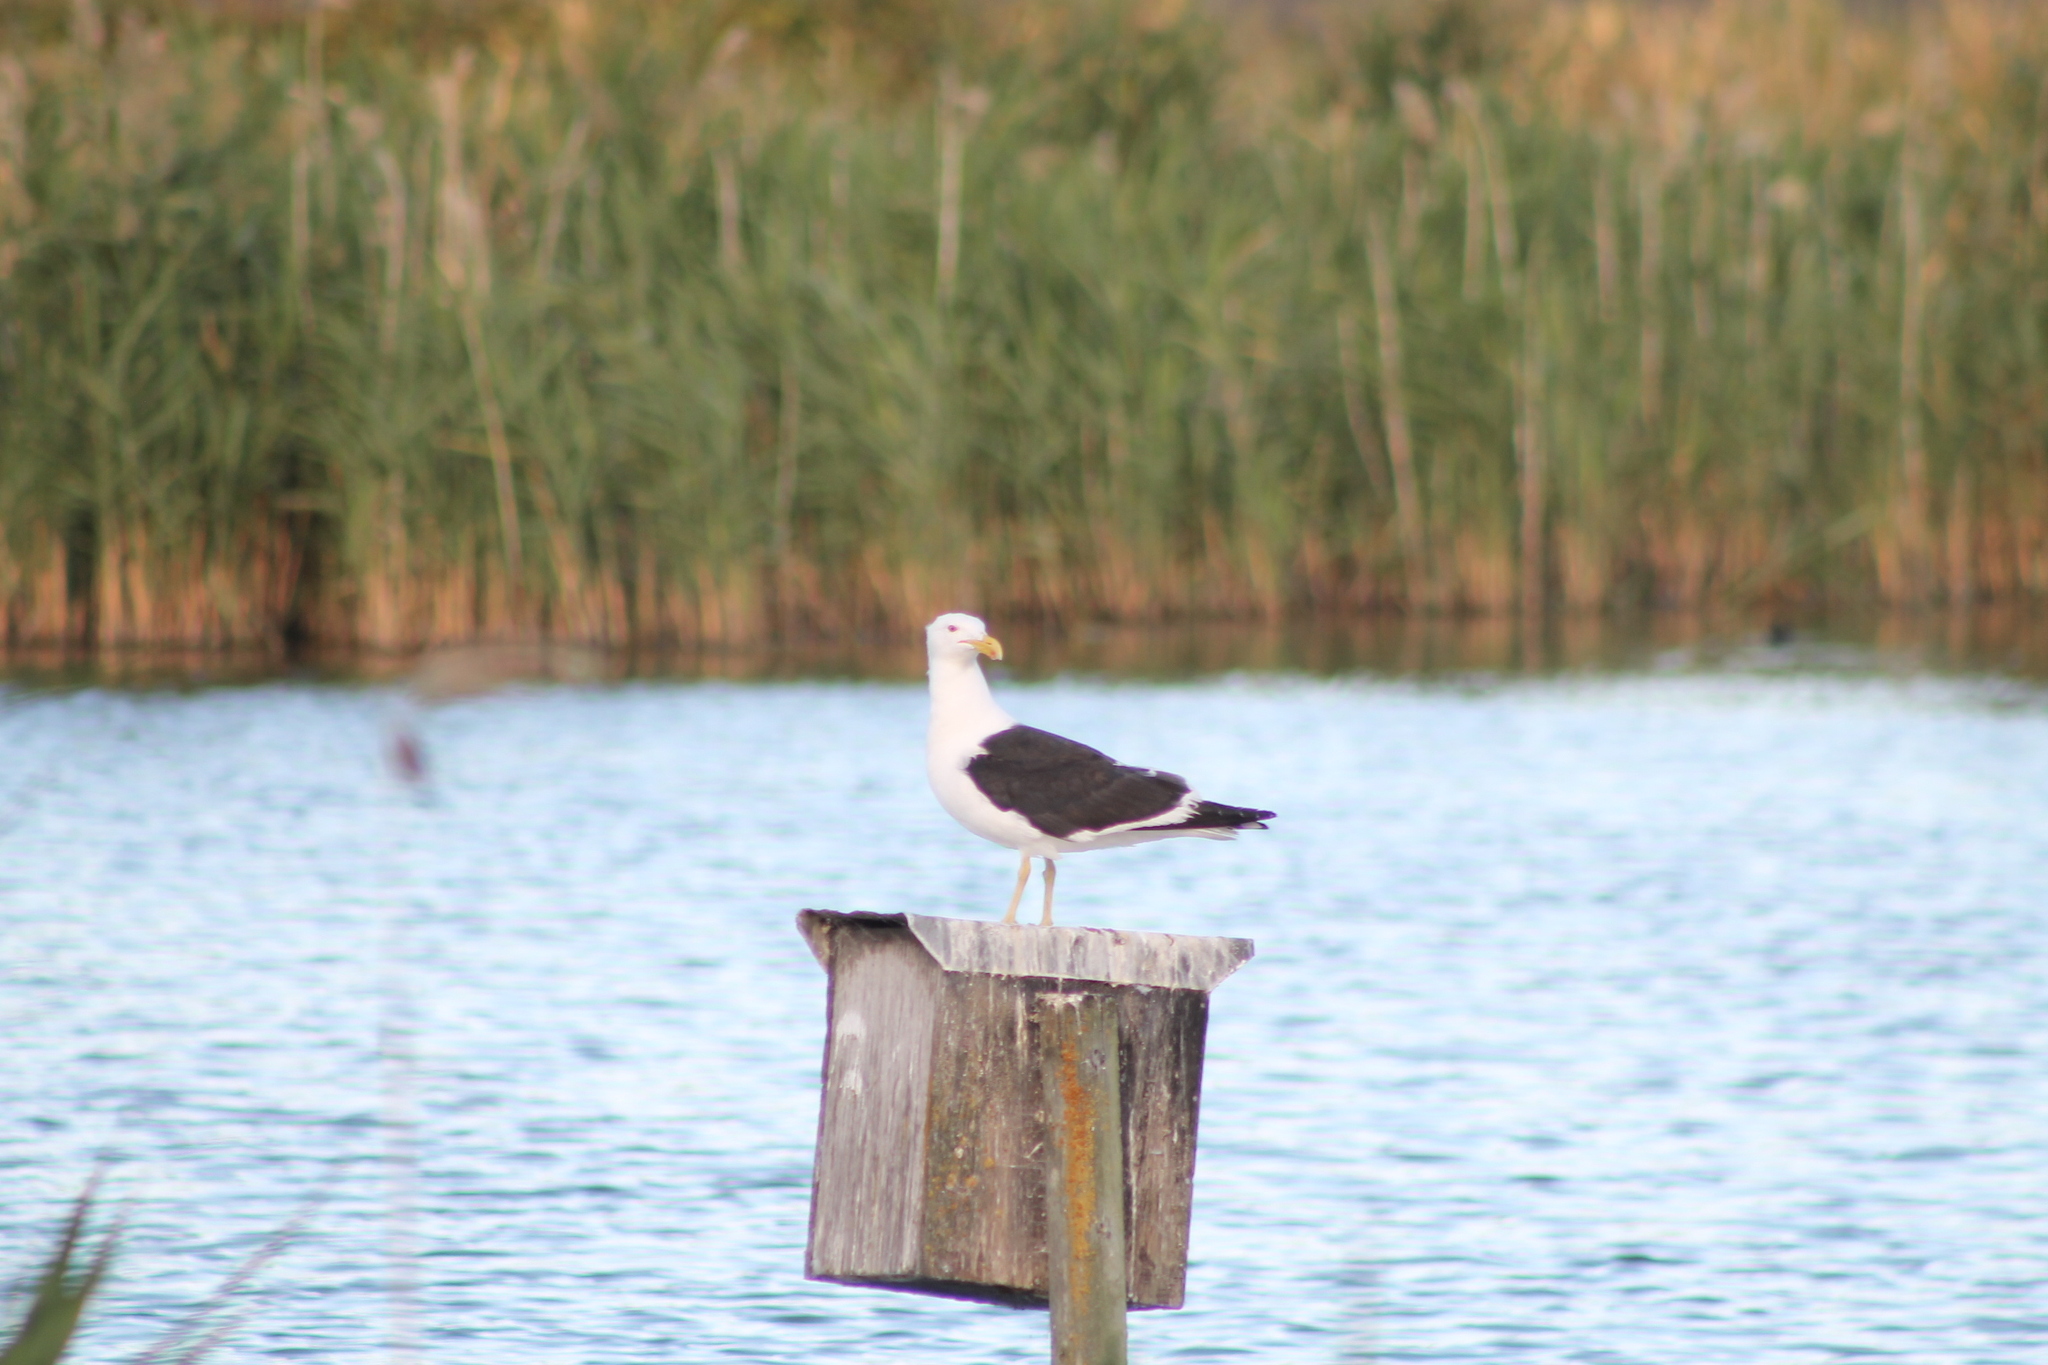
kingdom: Animalia
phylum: Chordata
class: Aves
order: Charadriiformes
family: Laridae
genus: Larus
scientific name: Larus dominicanus
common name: Kelp gull
